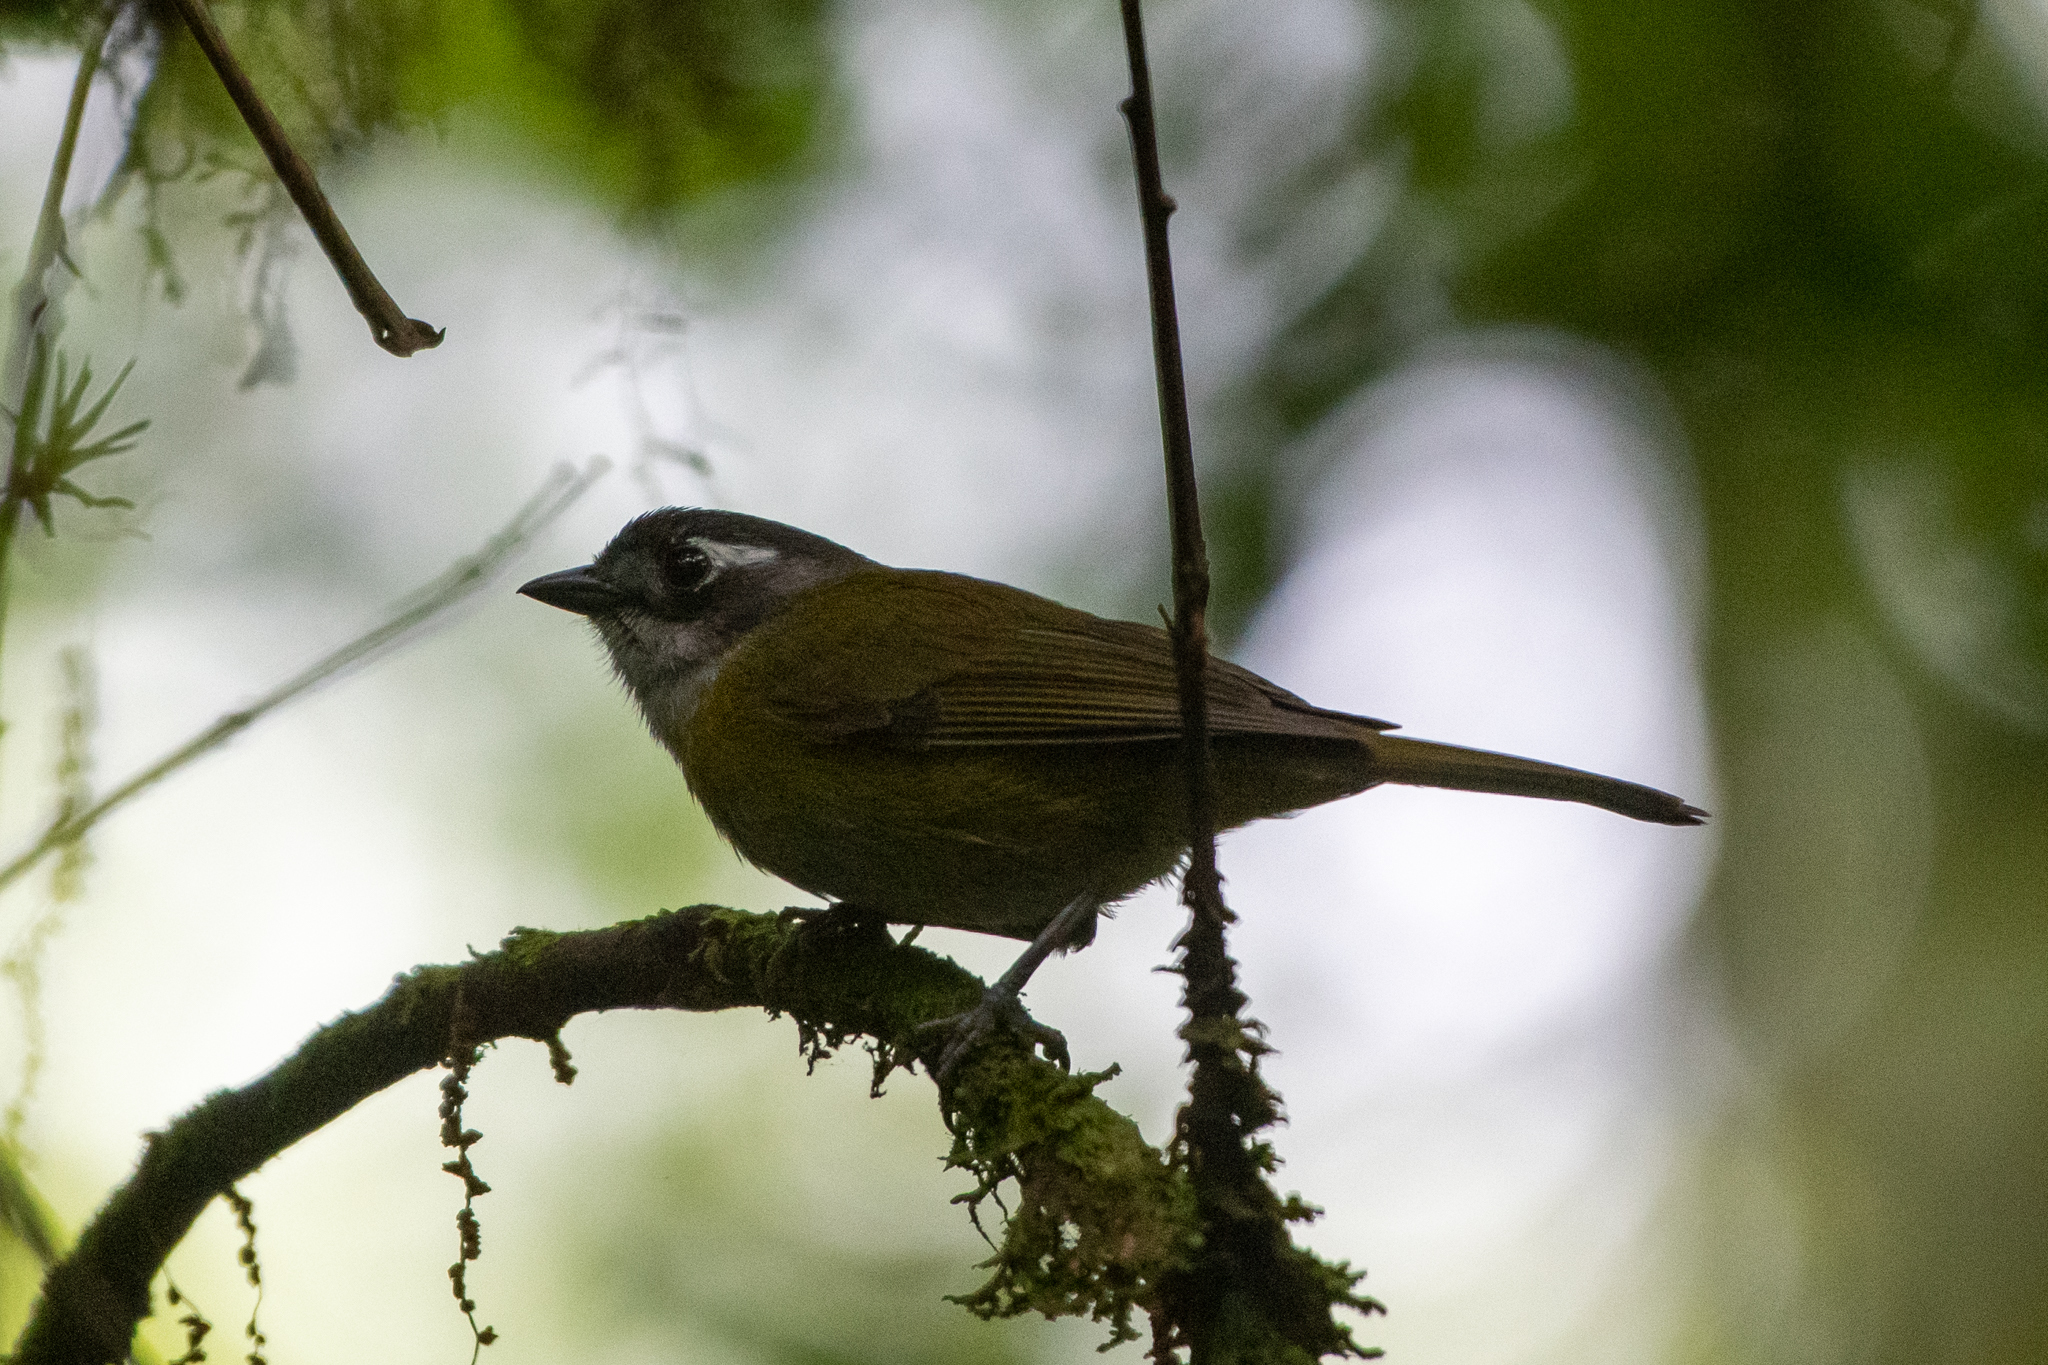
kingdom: Animalia
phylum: Chordata
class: Aves
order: Passeriformes
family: Passerellidae
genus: Chlorospingus
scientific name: Chlorospingus flavopectus
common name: Common chlorospingus
